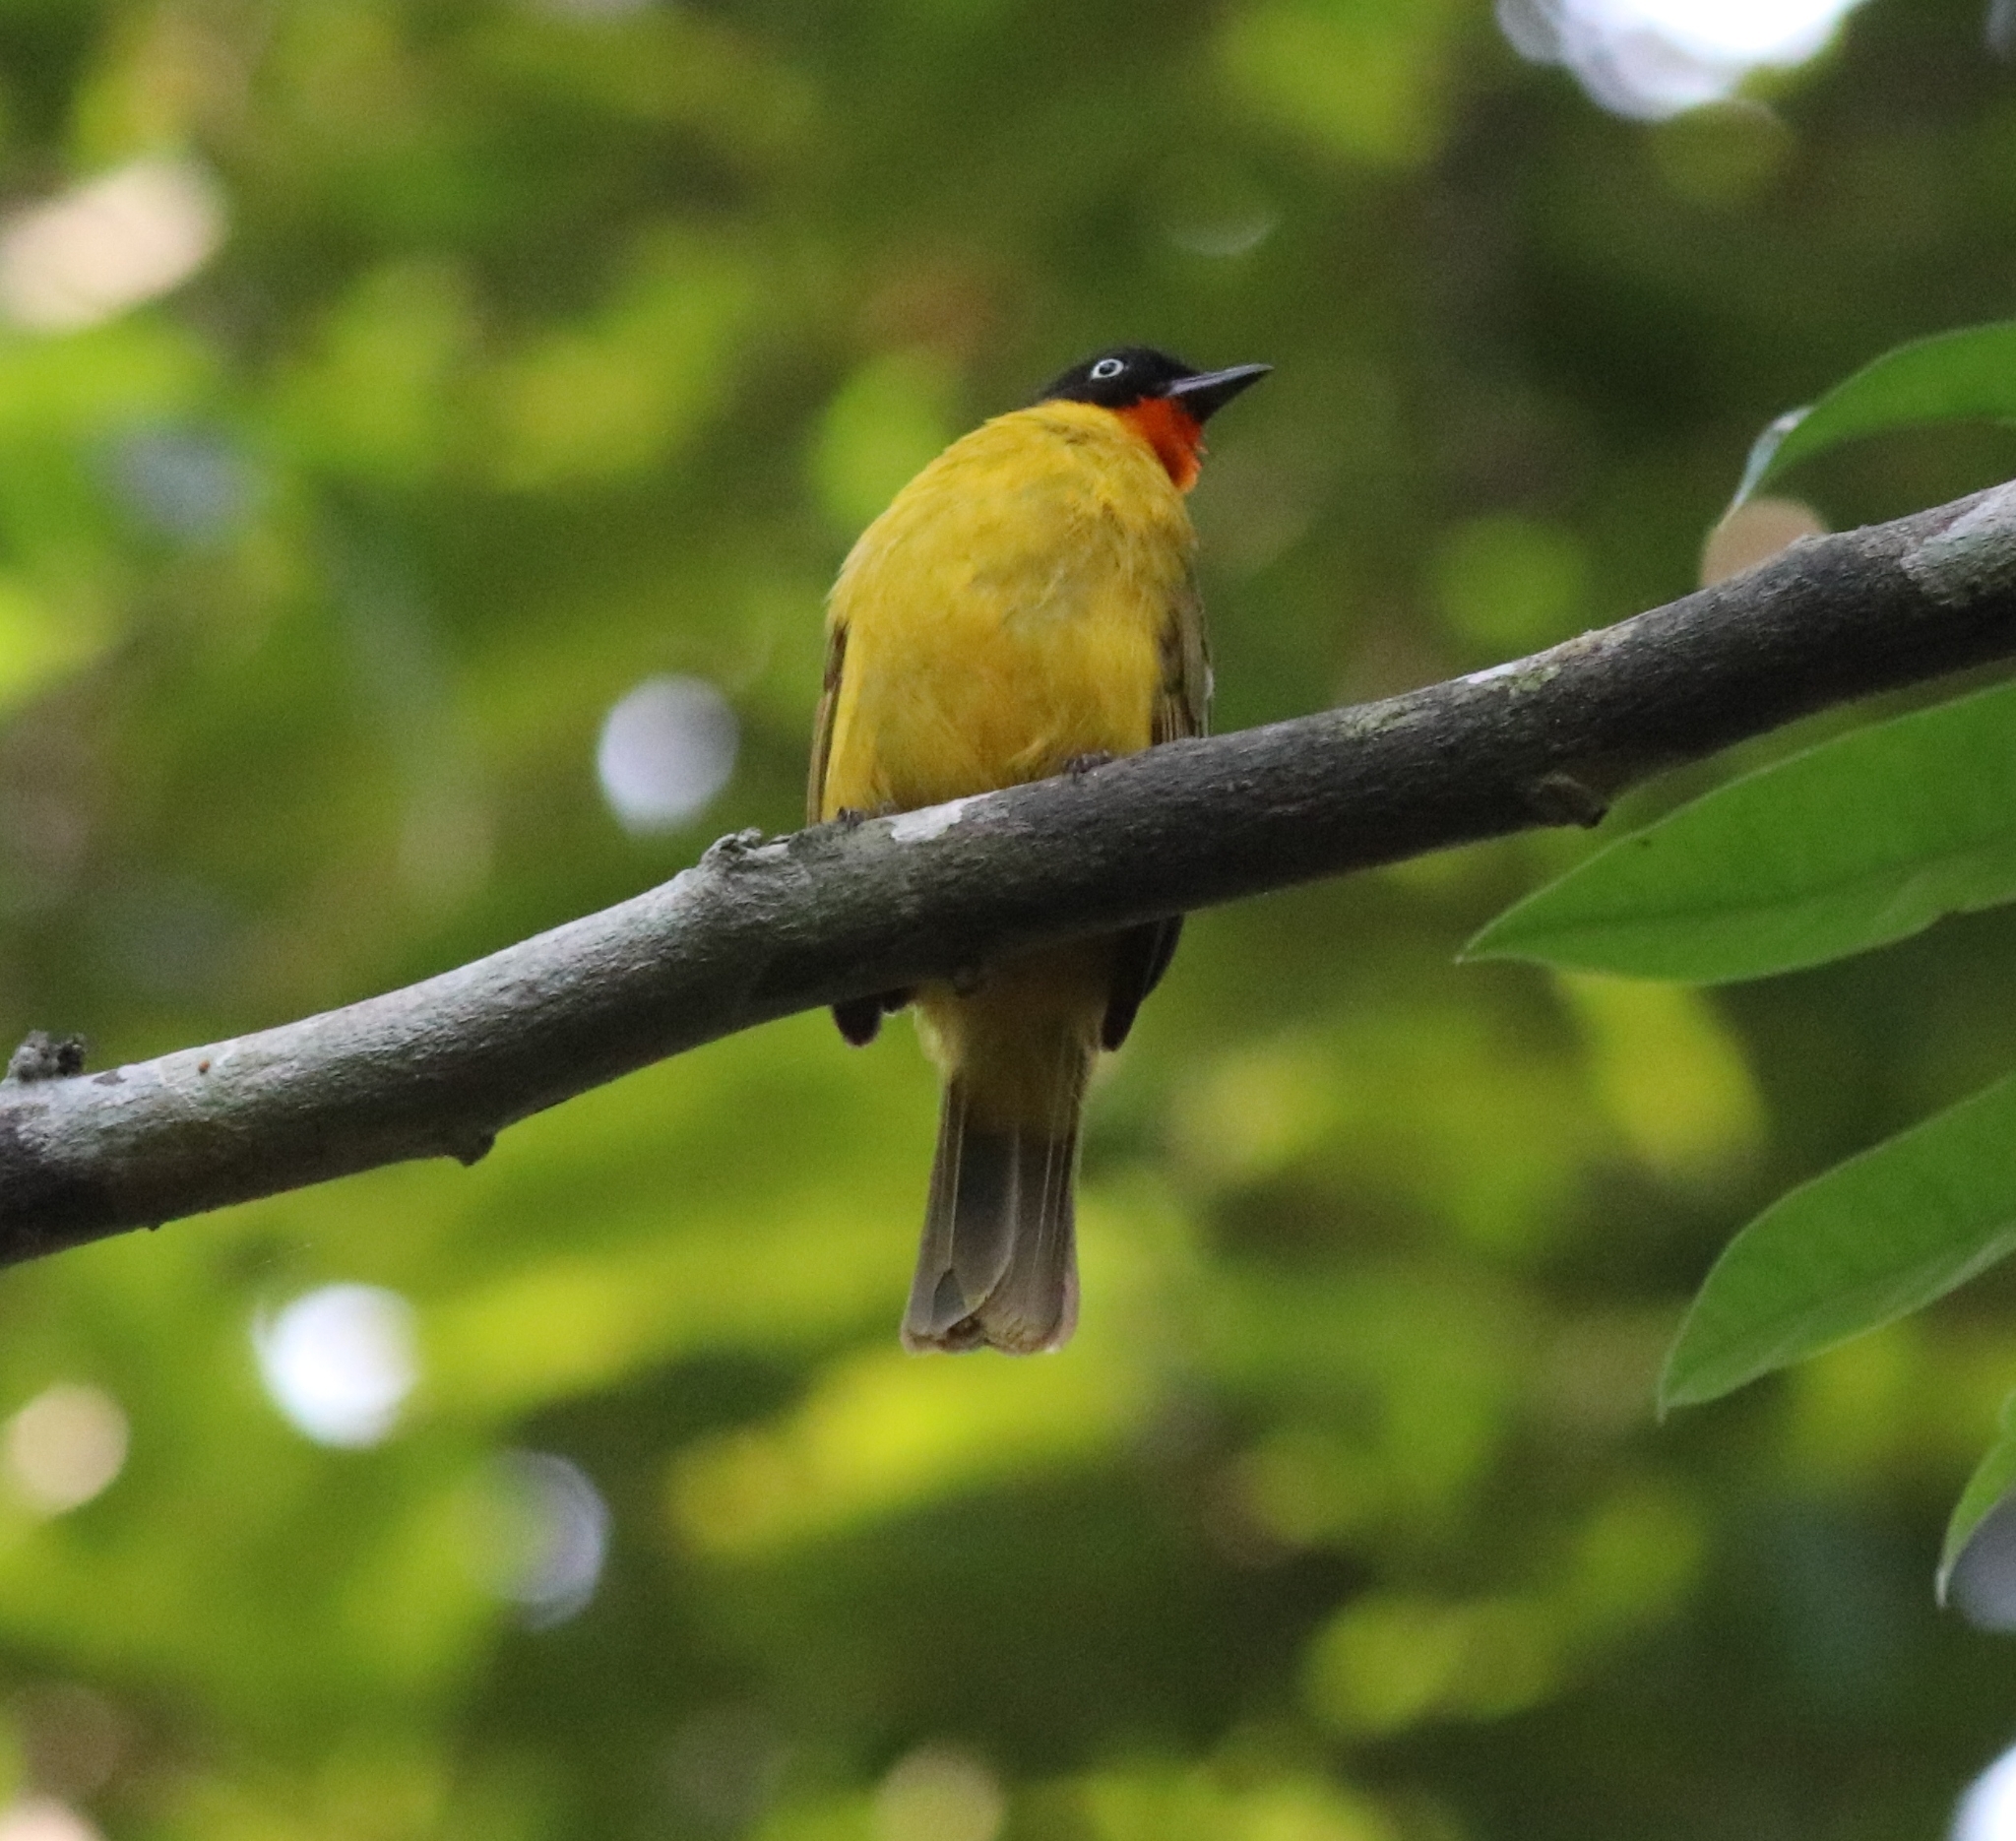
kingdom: Animalia
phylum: Chordata
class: Aves
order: Passeriformes
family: Pycnonotidae
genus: Pycnonotus
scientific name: Pycnonotus gularis
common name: Flame-throated bulbul
